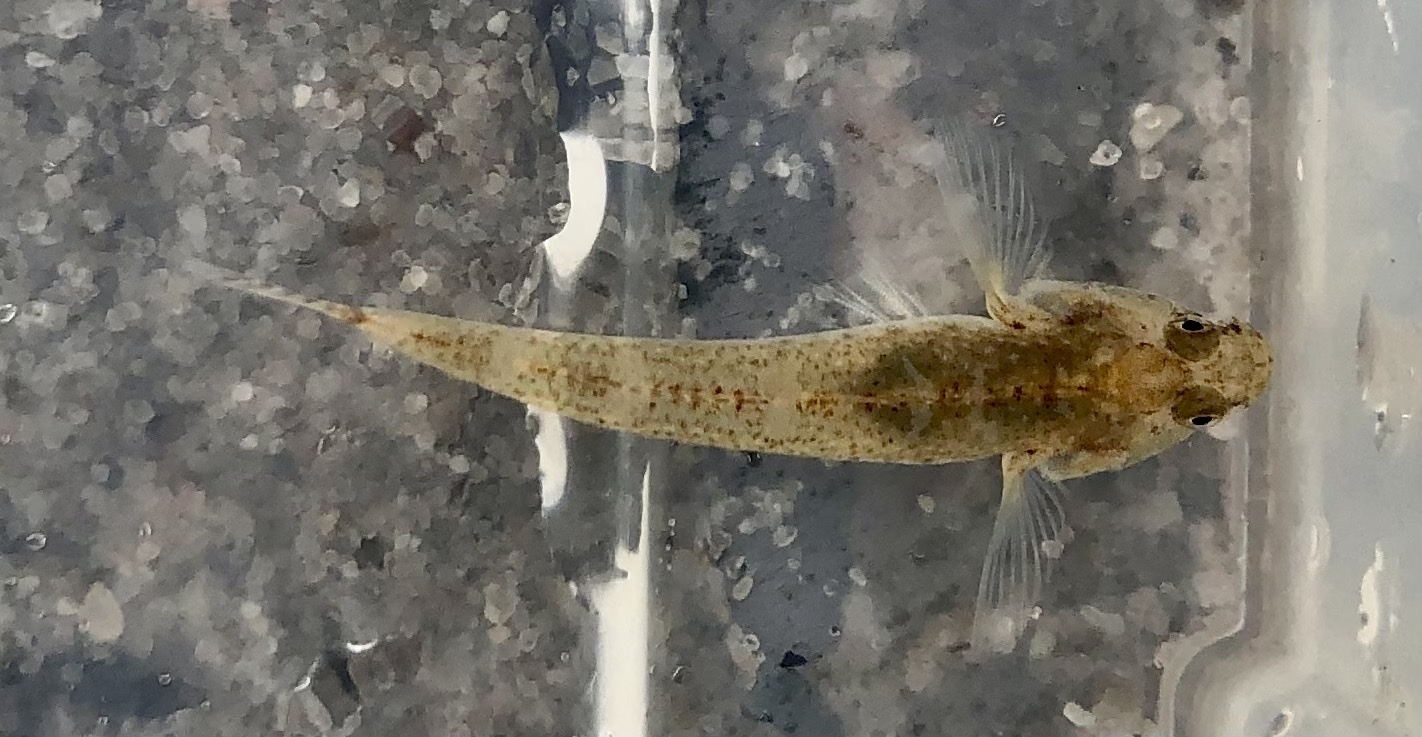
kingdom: Animalia
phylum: Chordata
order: Perciformes
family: Gobiidae
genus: Pomatoschistus
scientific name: Pomatoschistus microps
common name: Common goby
